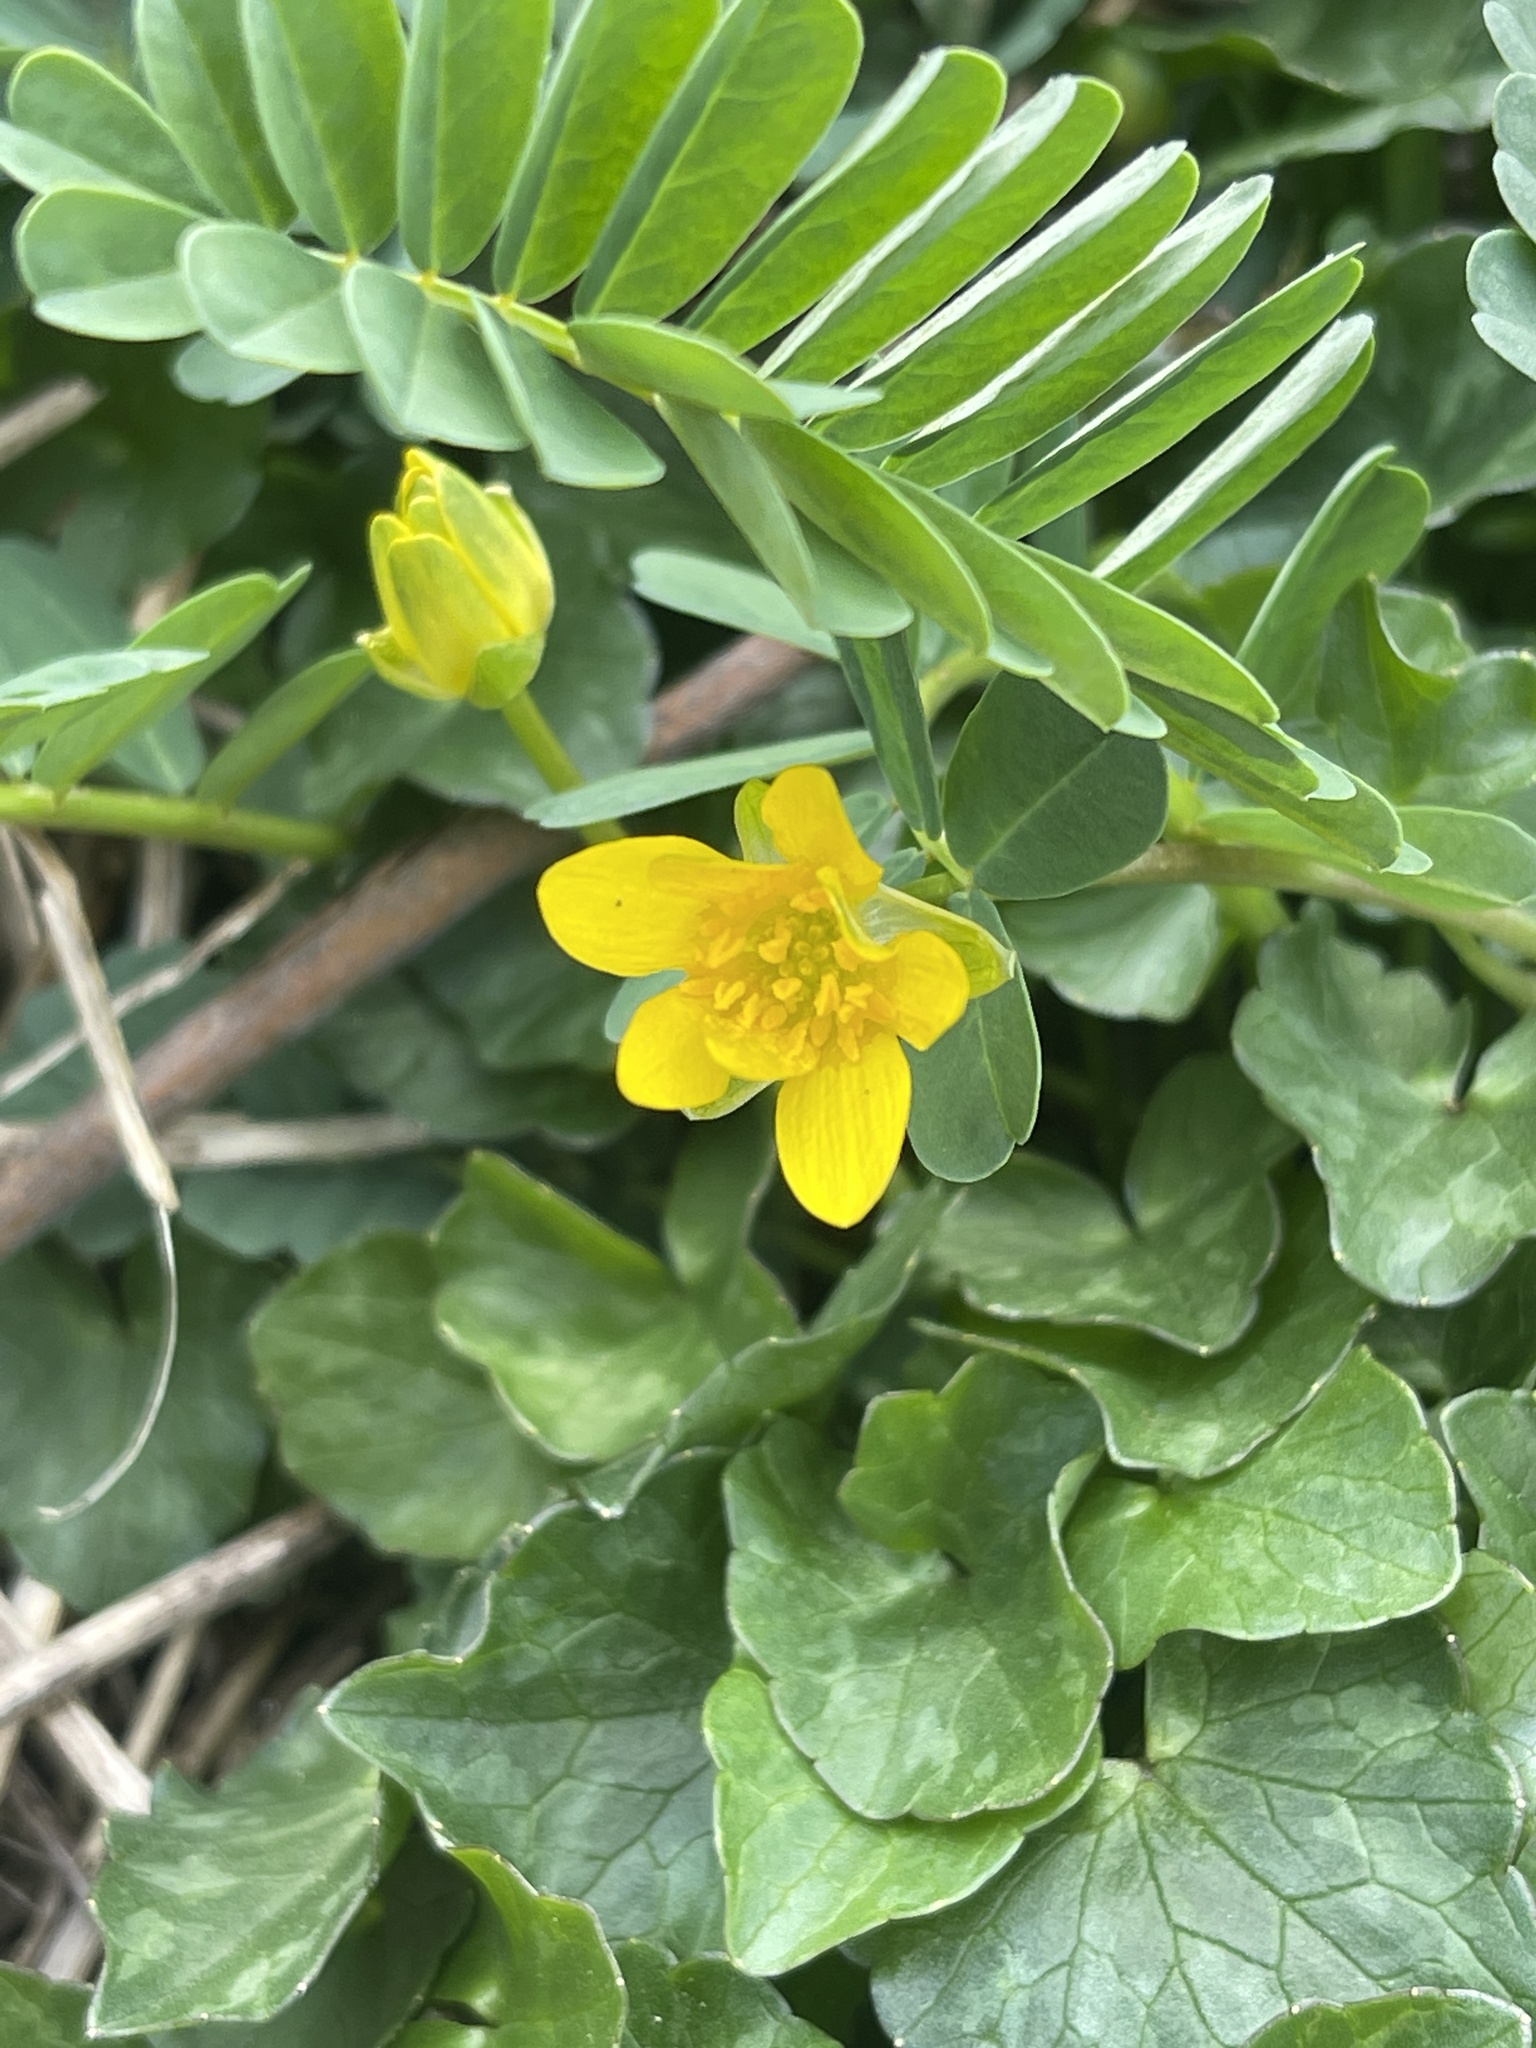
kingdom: Plantae
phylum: Tracheophyta
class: Magnoliopsida
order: Ranunculales
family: Ranunculaceae
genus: Caltha
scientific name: Caltha palustris
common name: Marsh marigold
